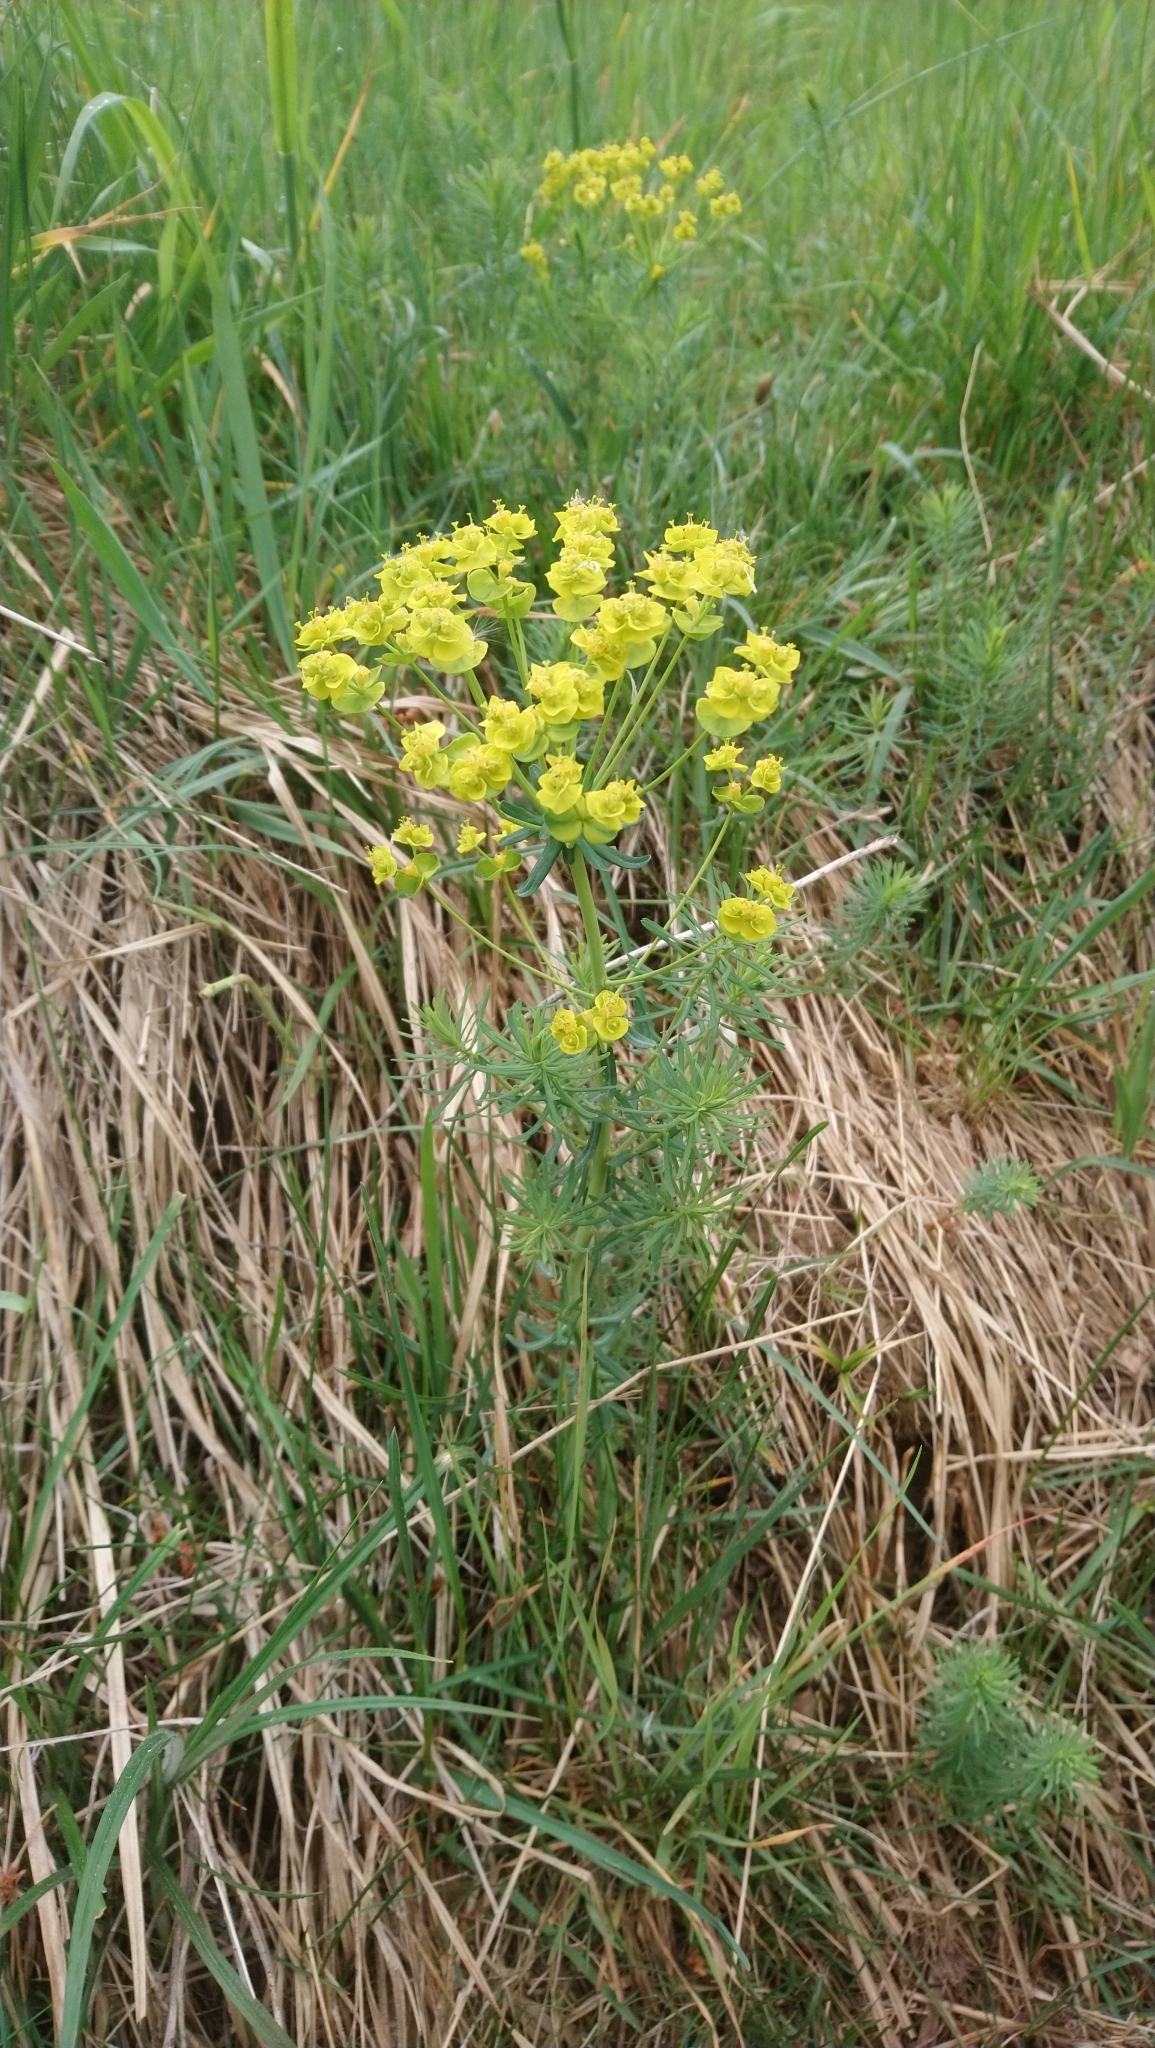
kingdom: Plantae
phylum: Tracheophyta
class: Magnoliopsida
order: Malpighiales
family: Euphorbiaceae
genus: Euphorbia
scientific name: Euphorbia cyparissias
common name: Cypress spurge
